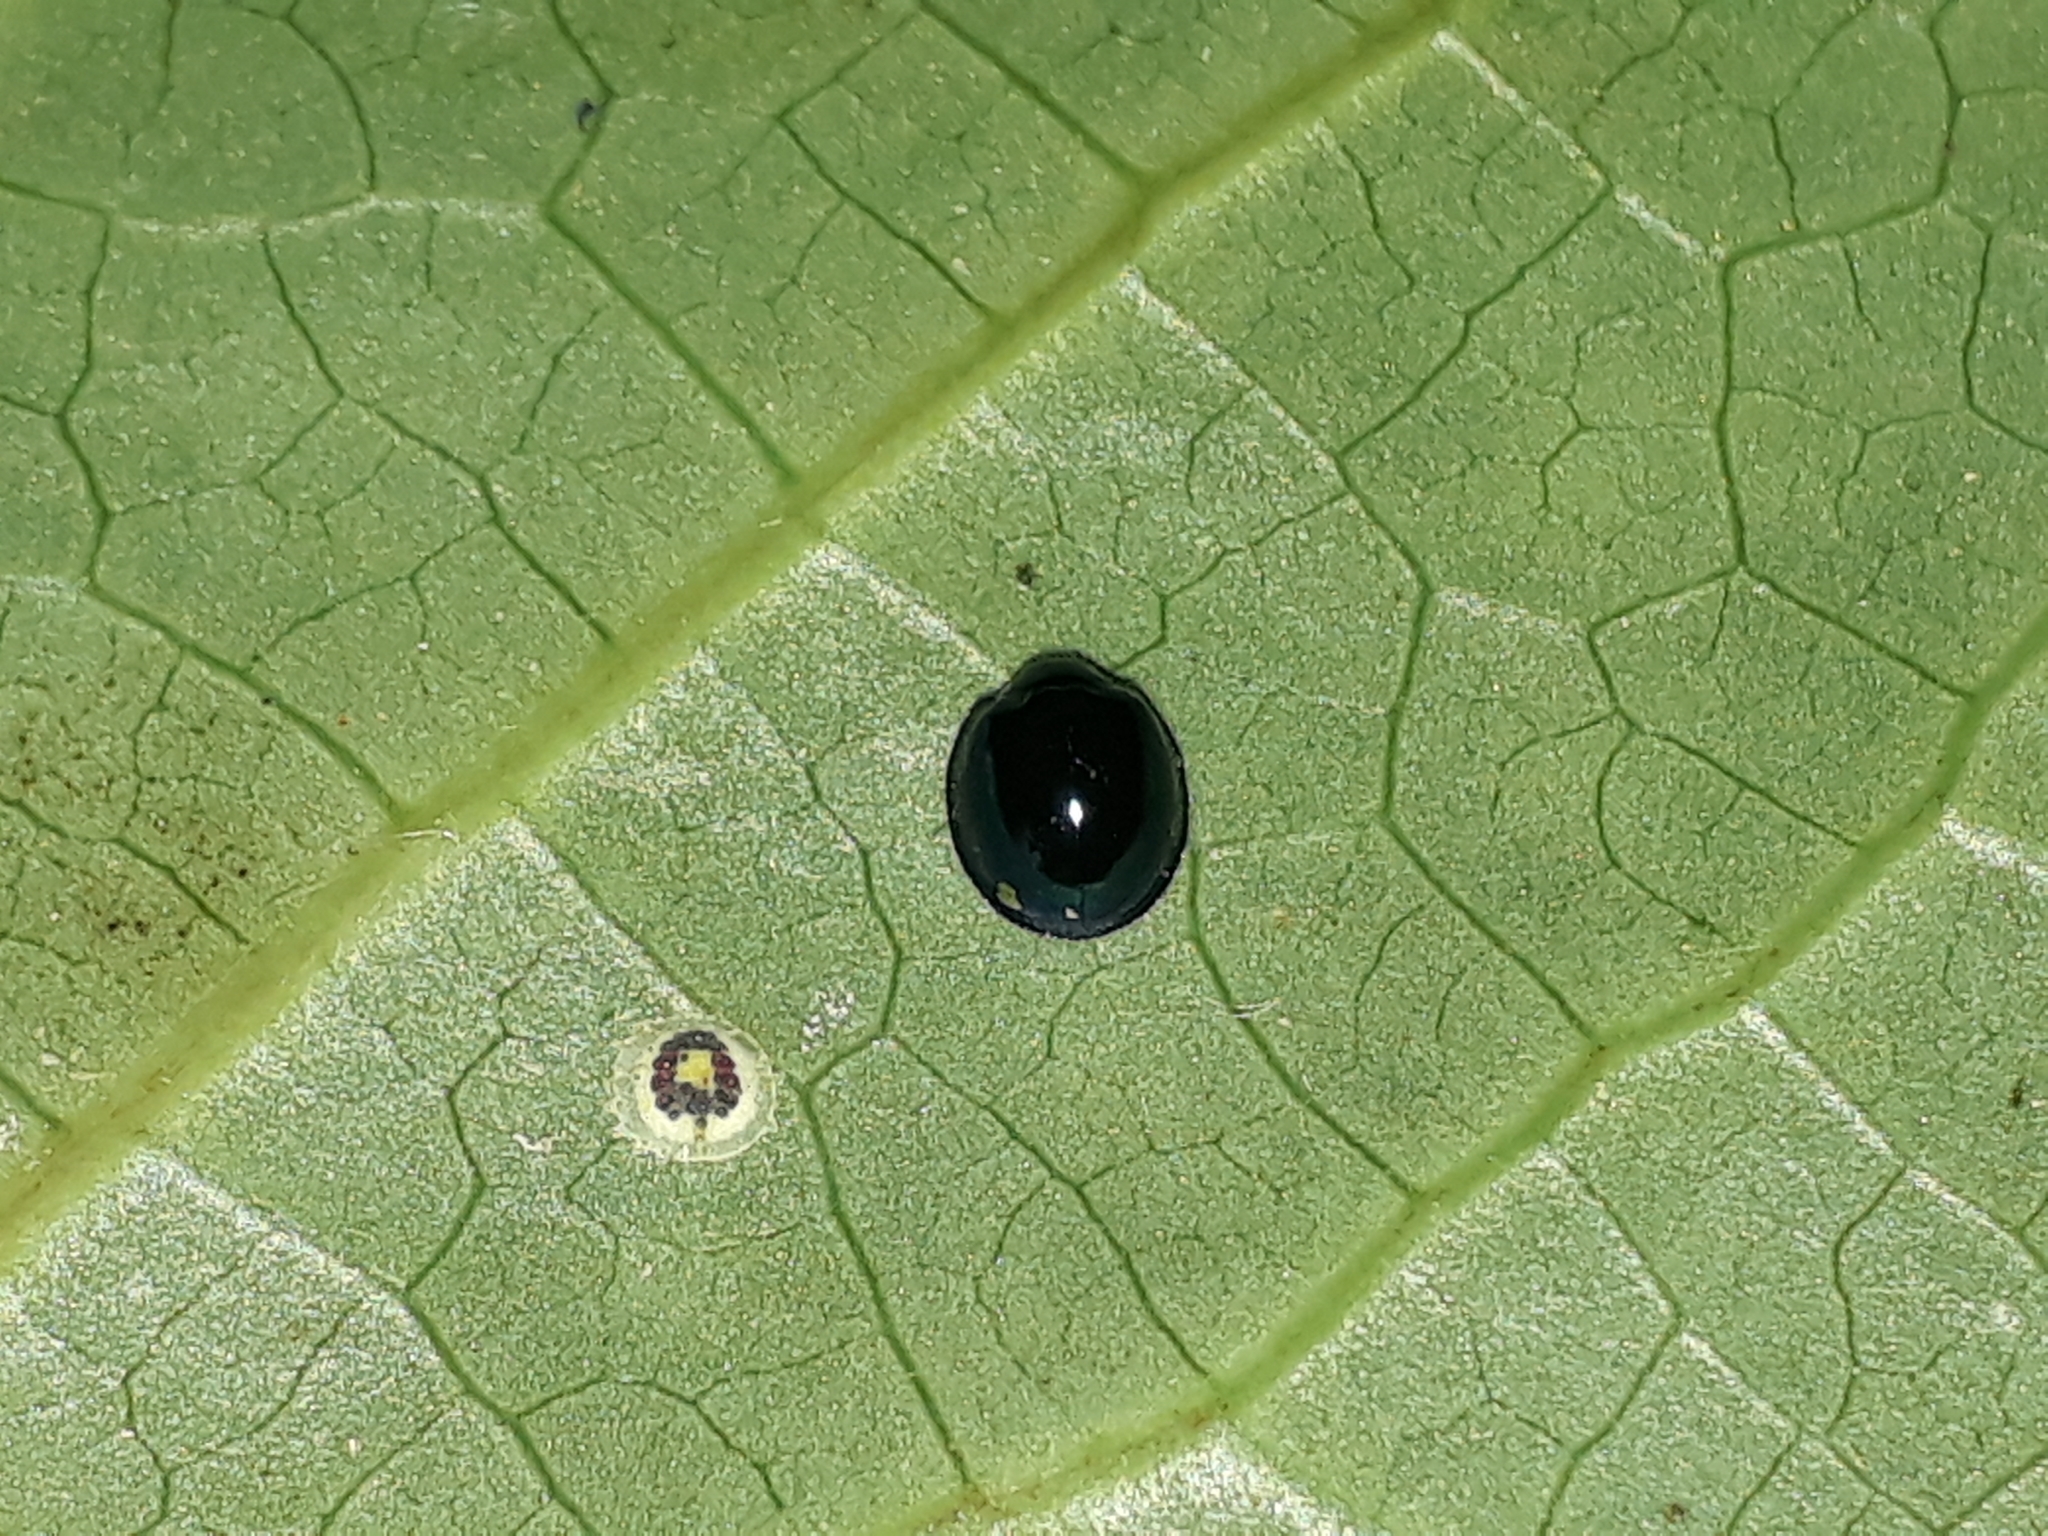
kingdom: Animalia
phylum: Arthropoda
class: Insecta
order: Coleoptera
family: Coccinellidae
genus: Halmus
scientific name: Halmus chalybeus
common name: Steel blue ladybird beetle
